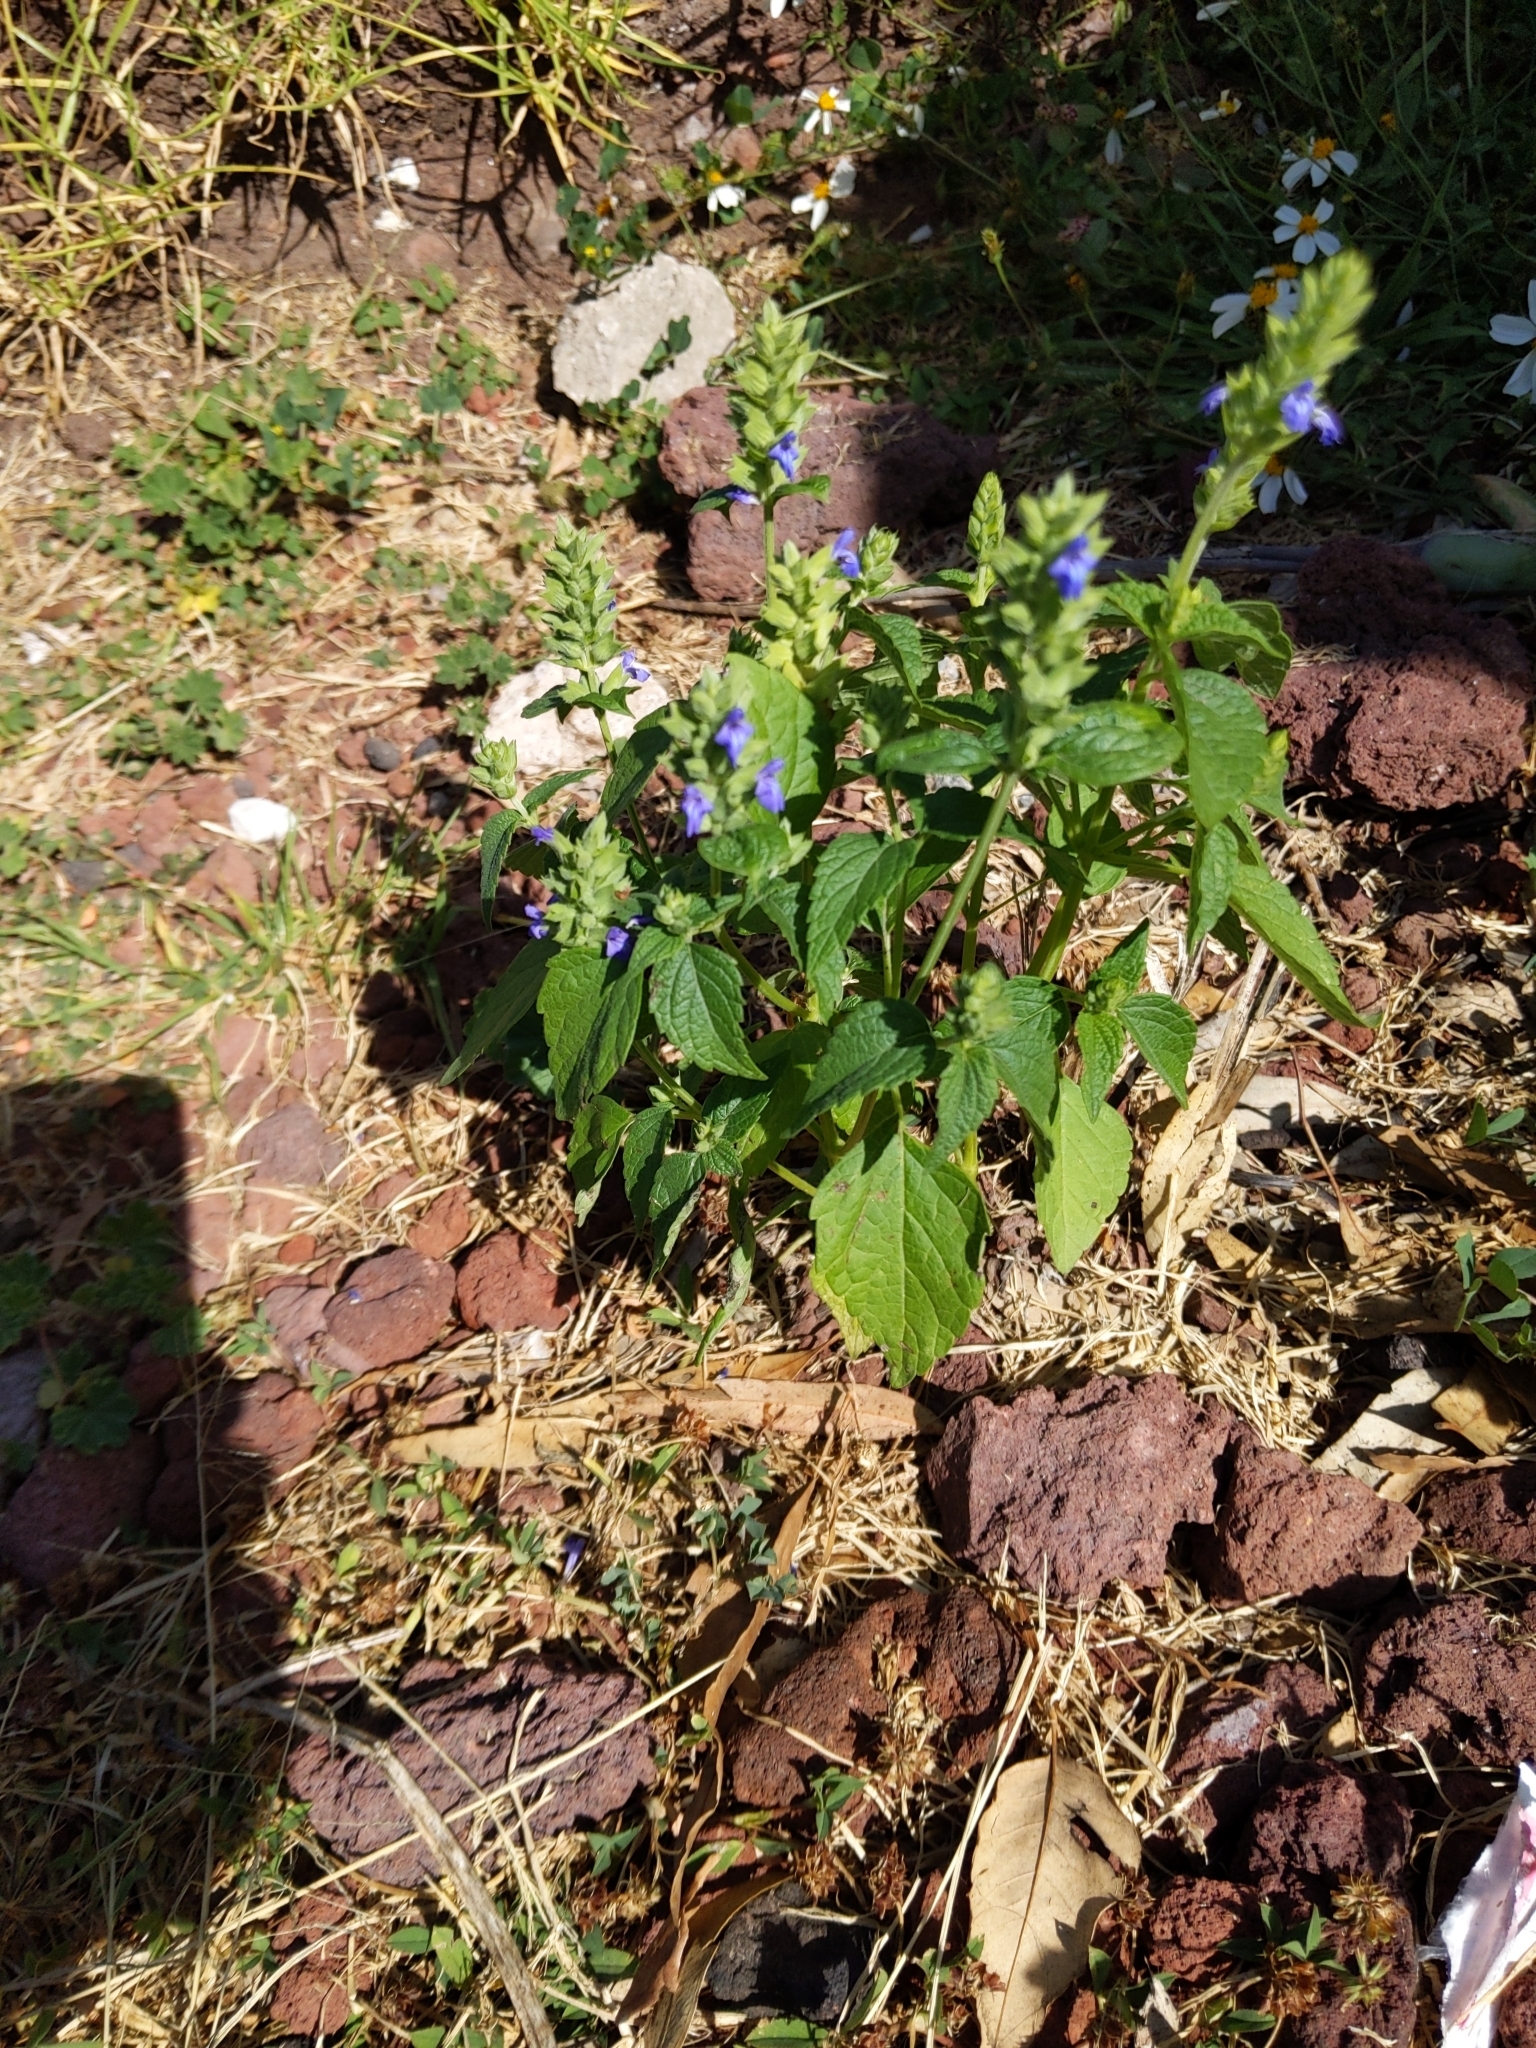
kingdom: Plantae
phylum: Tracheophyta
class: Magnoliopsida
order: Lamiales
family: Lamiaceae
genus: Salvia
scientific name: Salvia hispanica
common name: Chia
